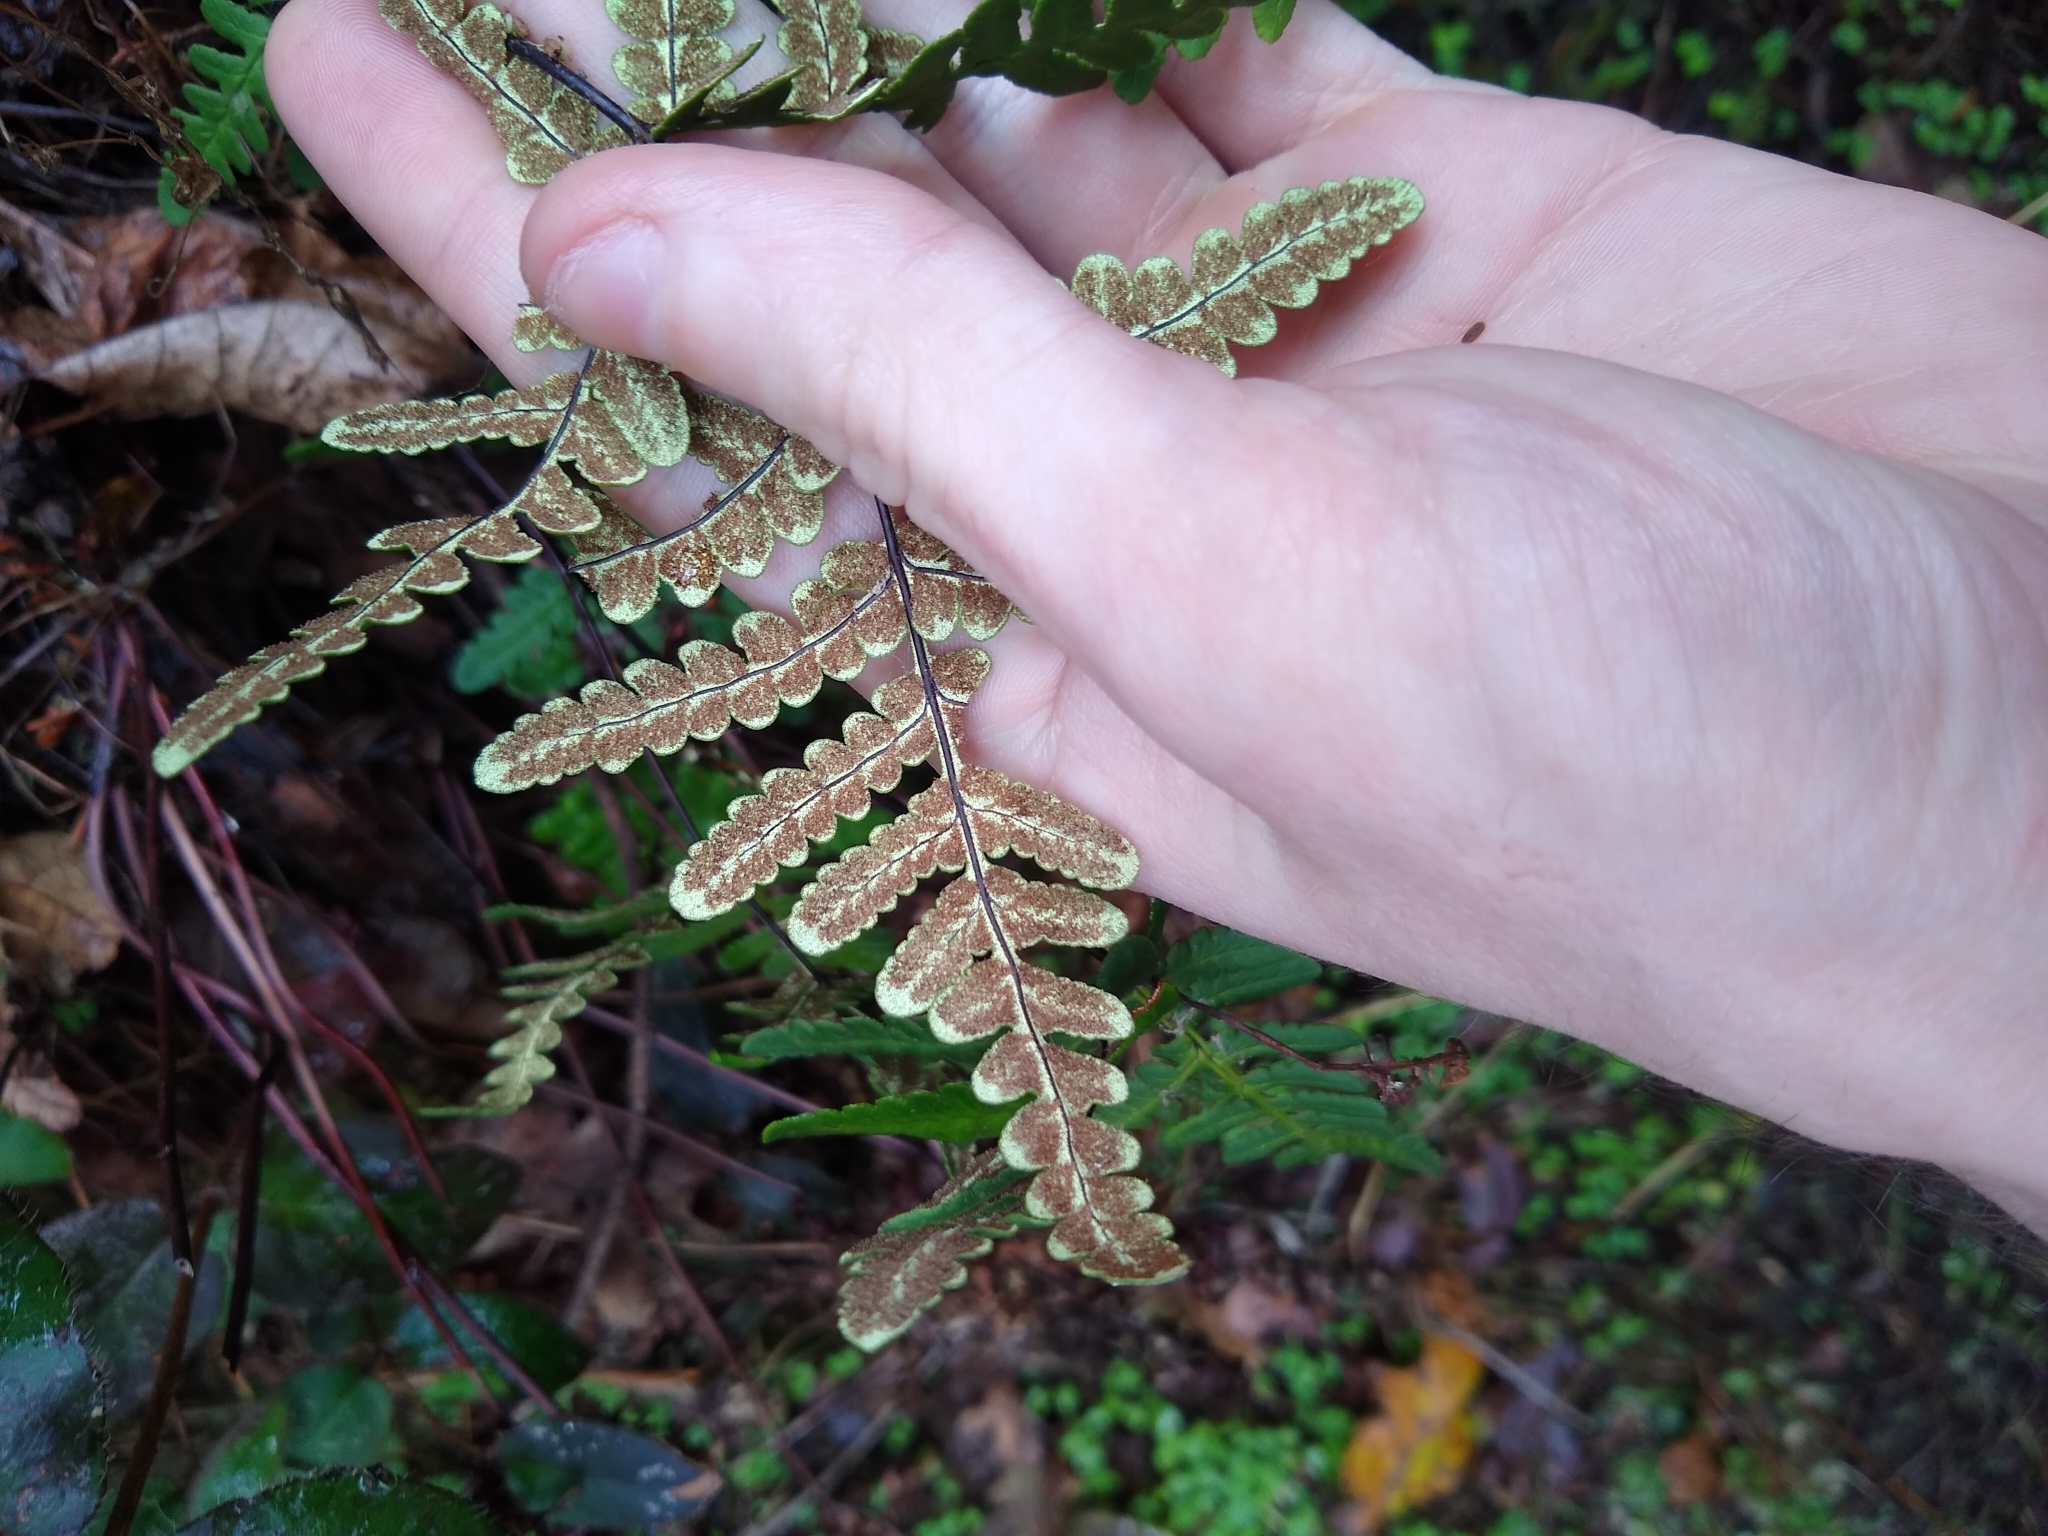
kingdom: Plantae
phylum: Tracheophyta
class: Polypodiopsida
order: Polypodiales
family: Pteridaceae
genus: Pentagramma
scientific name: Pentagramma triangularis
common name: Gold fern
